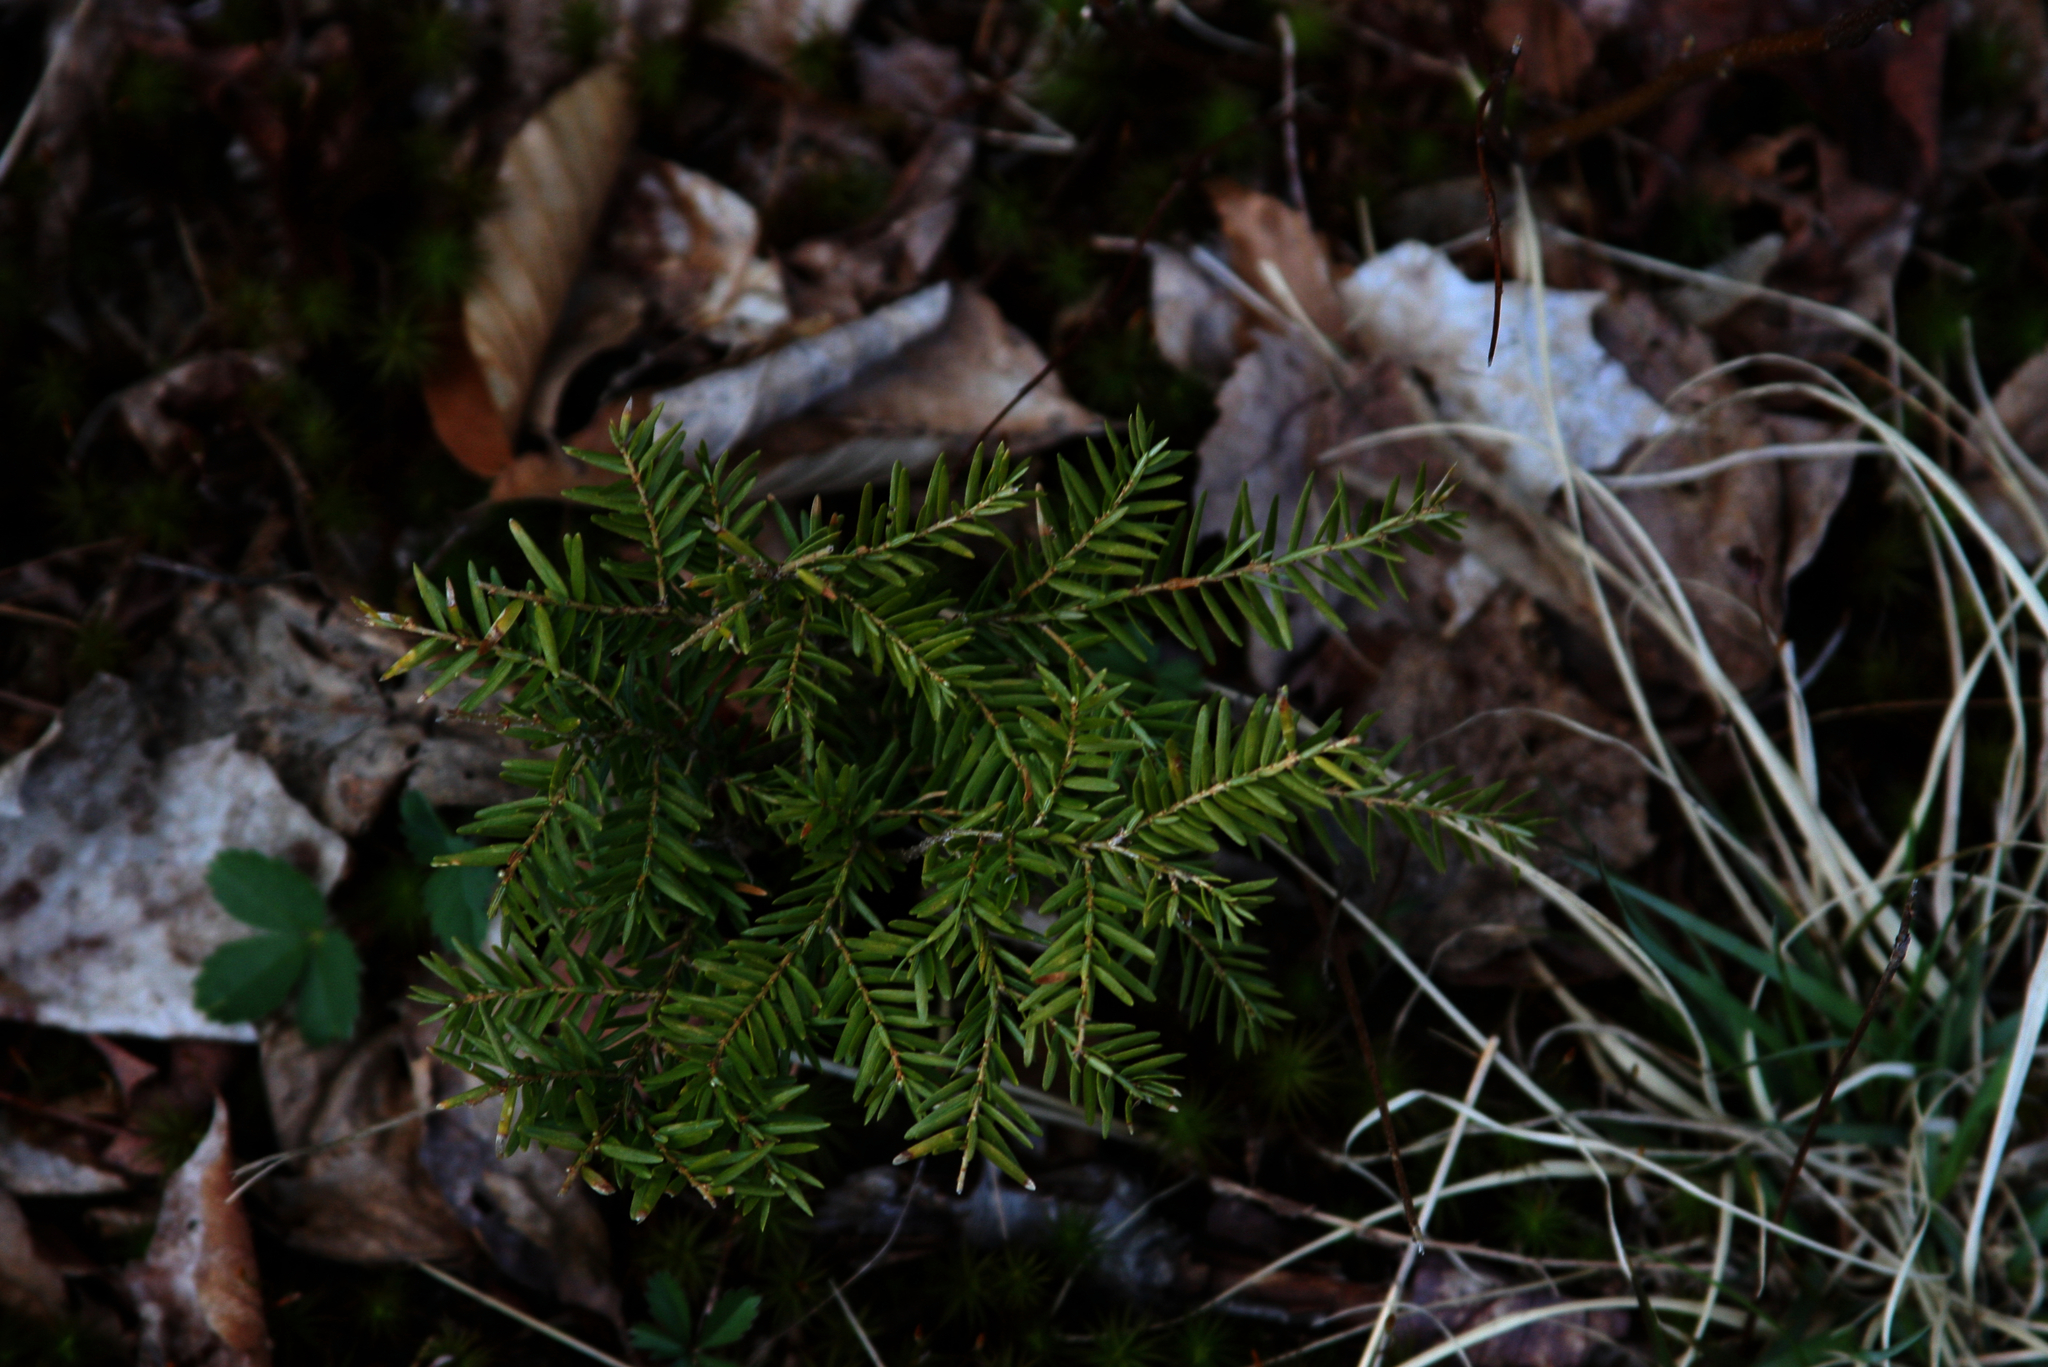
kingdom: Plantae
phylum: Tracheophyta
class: Pinopsida
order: Pinales
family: Pinaceae
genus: Tsuga
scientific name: Tsuga canadensis
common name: Eastern hemlock
